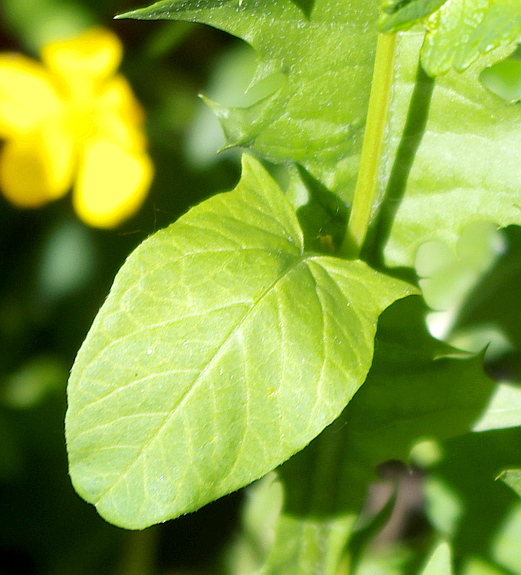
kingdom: Plantae
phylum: Tracheophyta
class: Magnoliopsida
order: Solanales
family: Convolvulaceae
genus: Convolvulus
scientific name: Convolvulus arvensis
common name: Field bindweed
